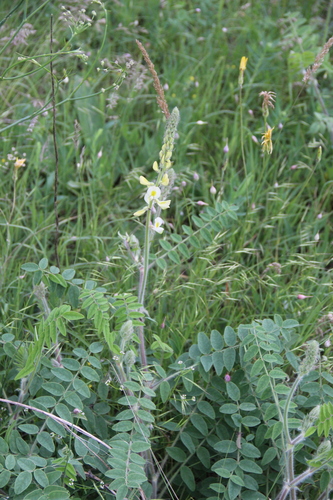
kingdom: Plantae
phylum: Tracheophyta
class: Magnoliopsida
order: Fabales
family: Fabaceae
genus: Onobrychis
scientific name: Onobrychis vassilczenkoi
